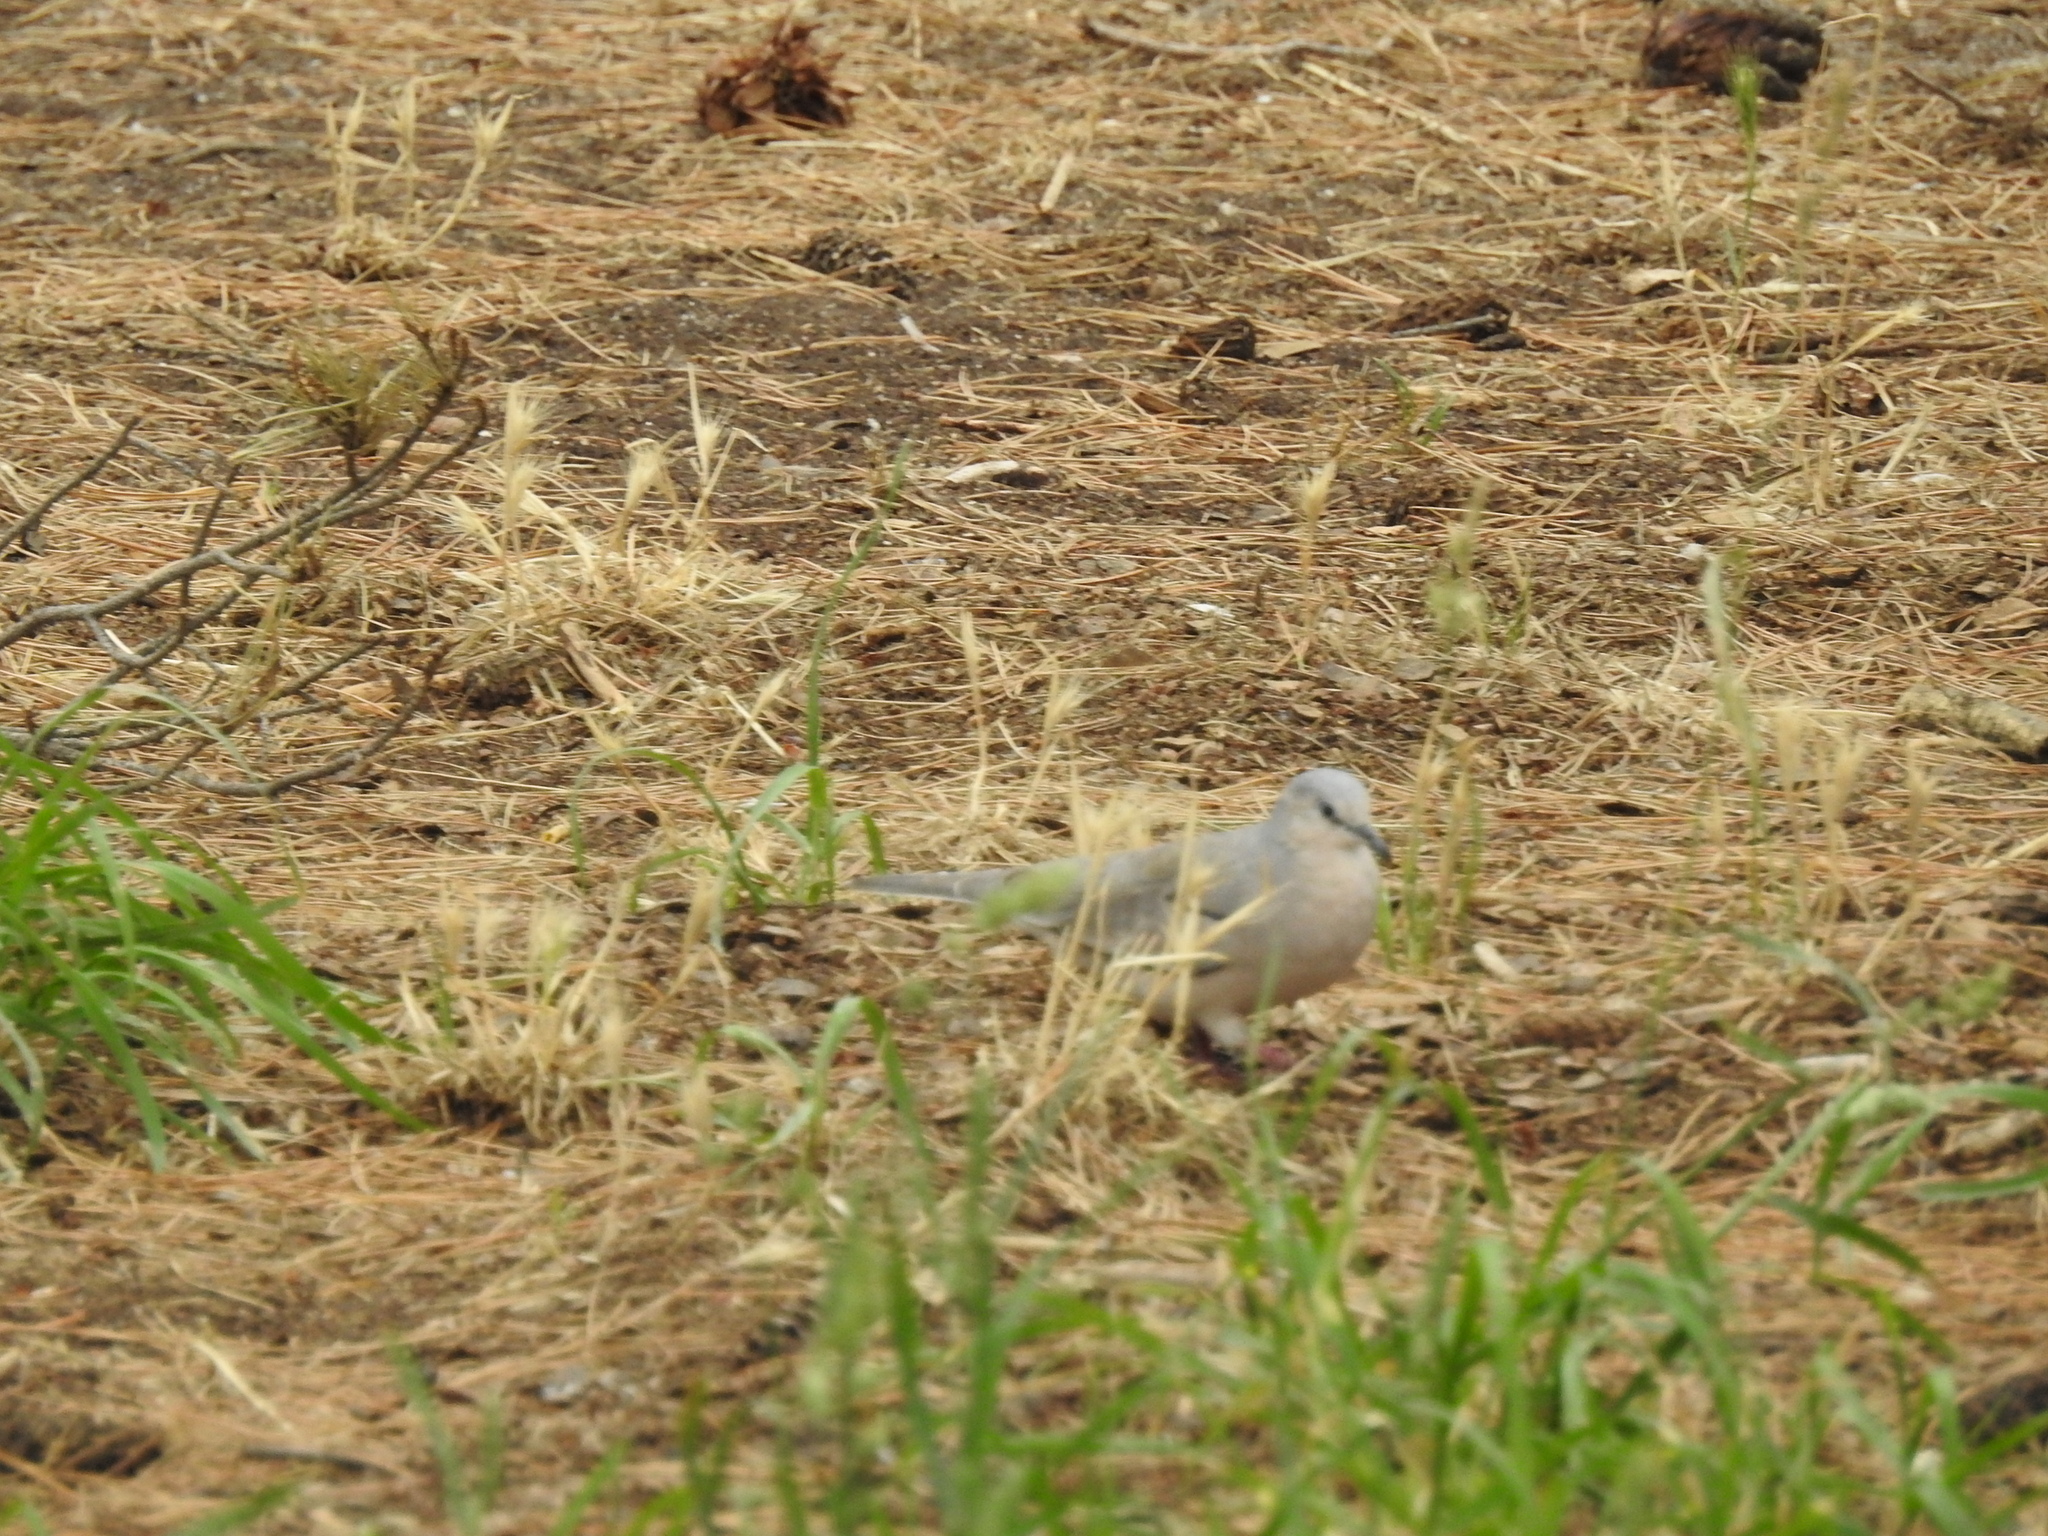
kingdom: Animalia
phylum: Chordata
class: Aves
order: Columbiformes
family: Columbidae
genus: Columbina
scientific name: Columbina picui
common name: Picui ground dove
